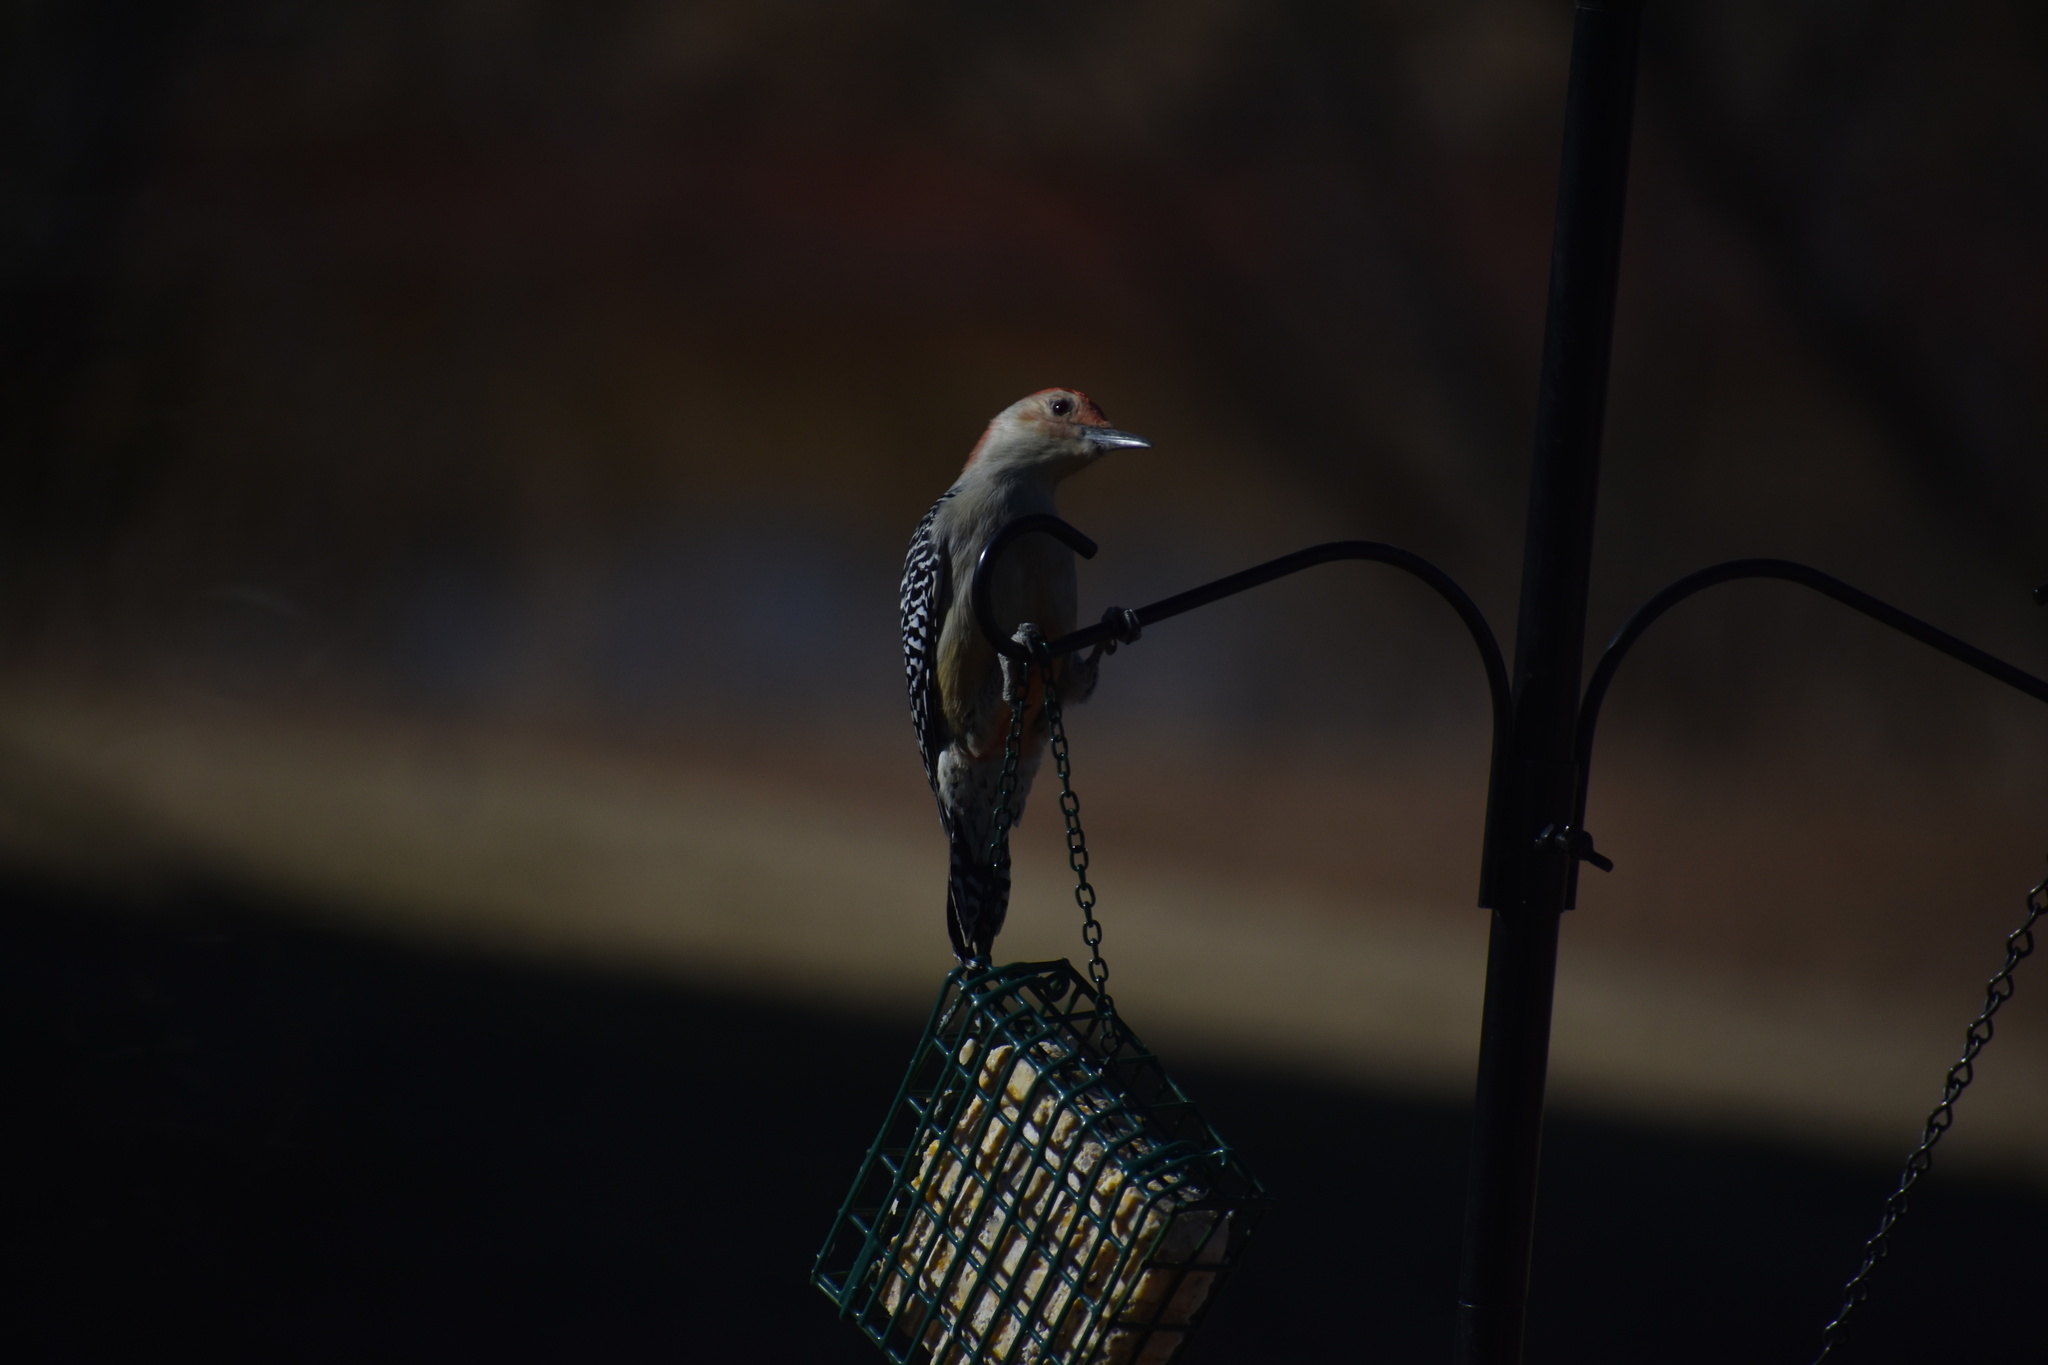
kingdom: Animalia
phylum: Chordata
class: Aves
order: Piciformes
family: Picidae
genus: Melanerpes
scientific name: Melanerpes carolinus
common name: Red-bellied woodpecker
